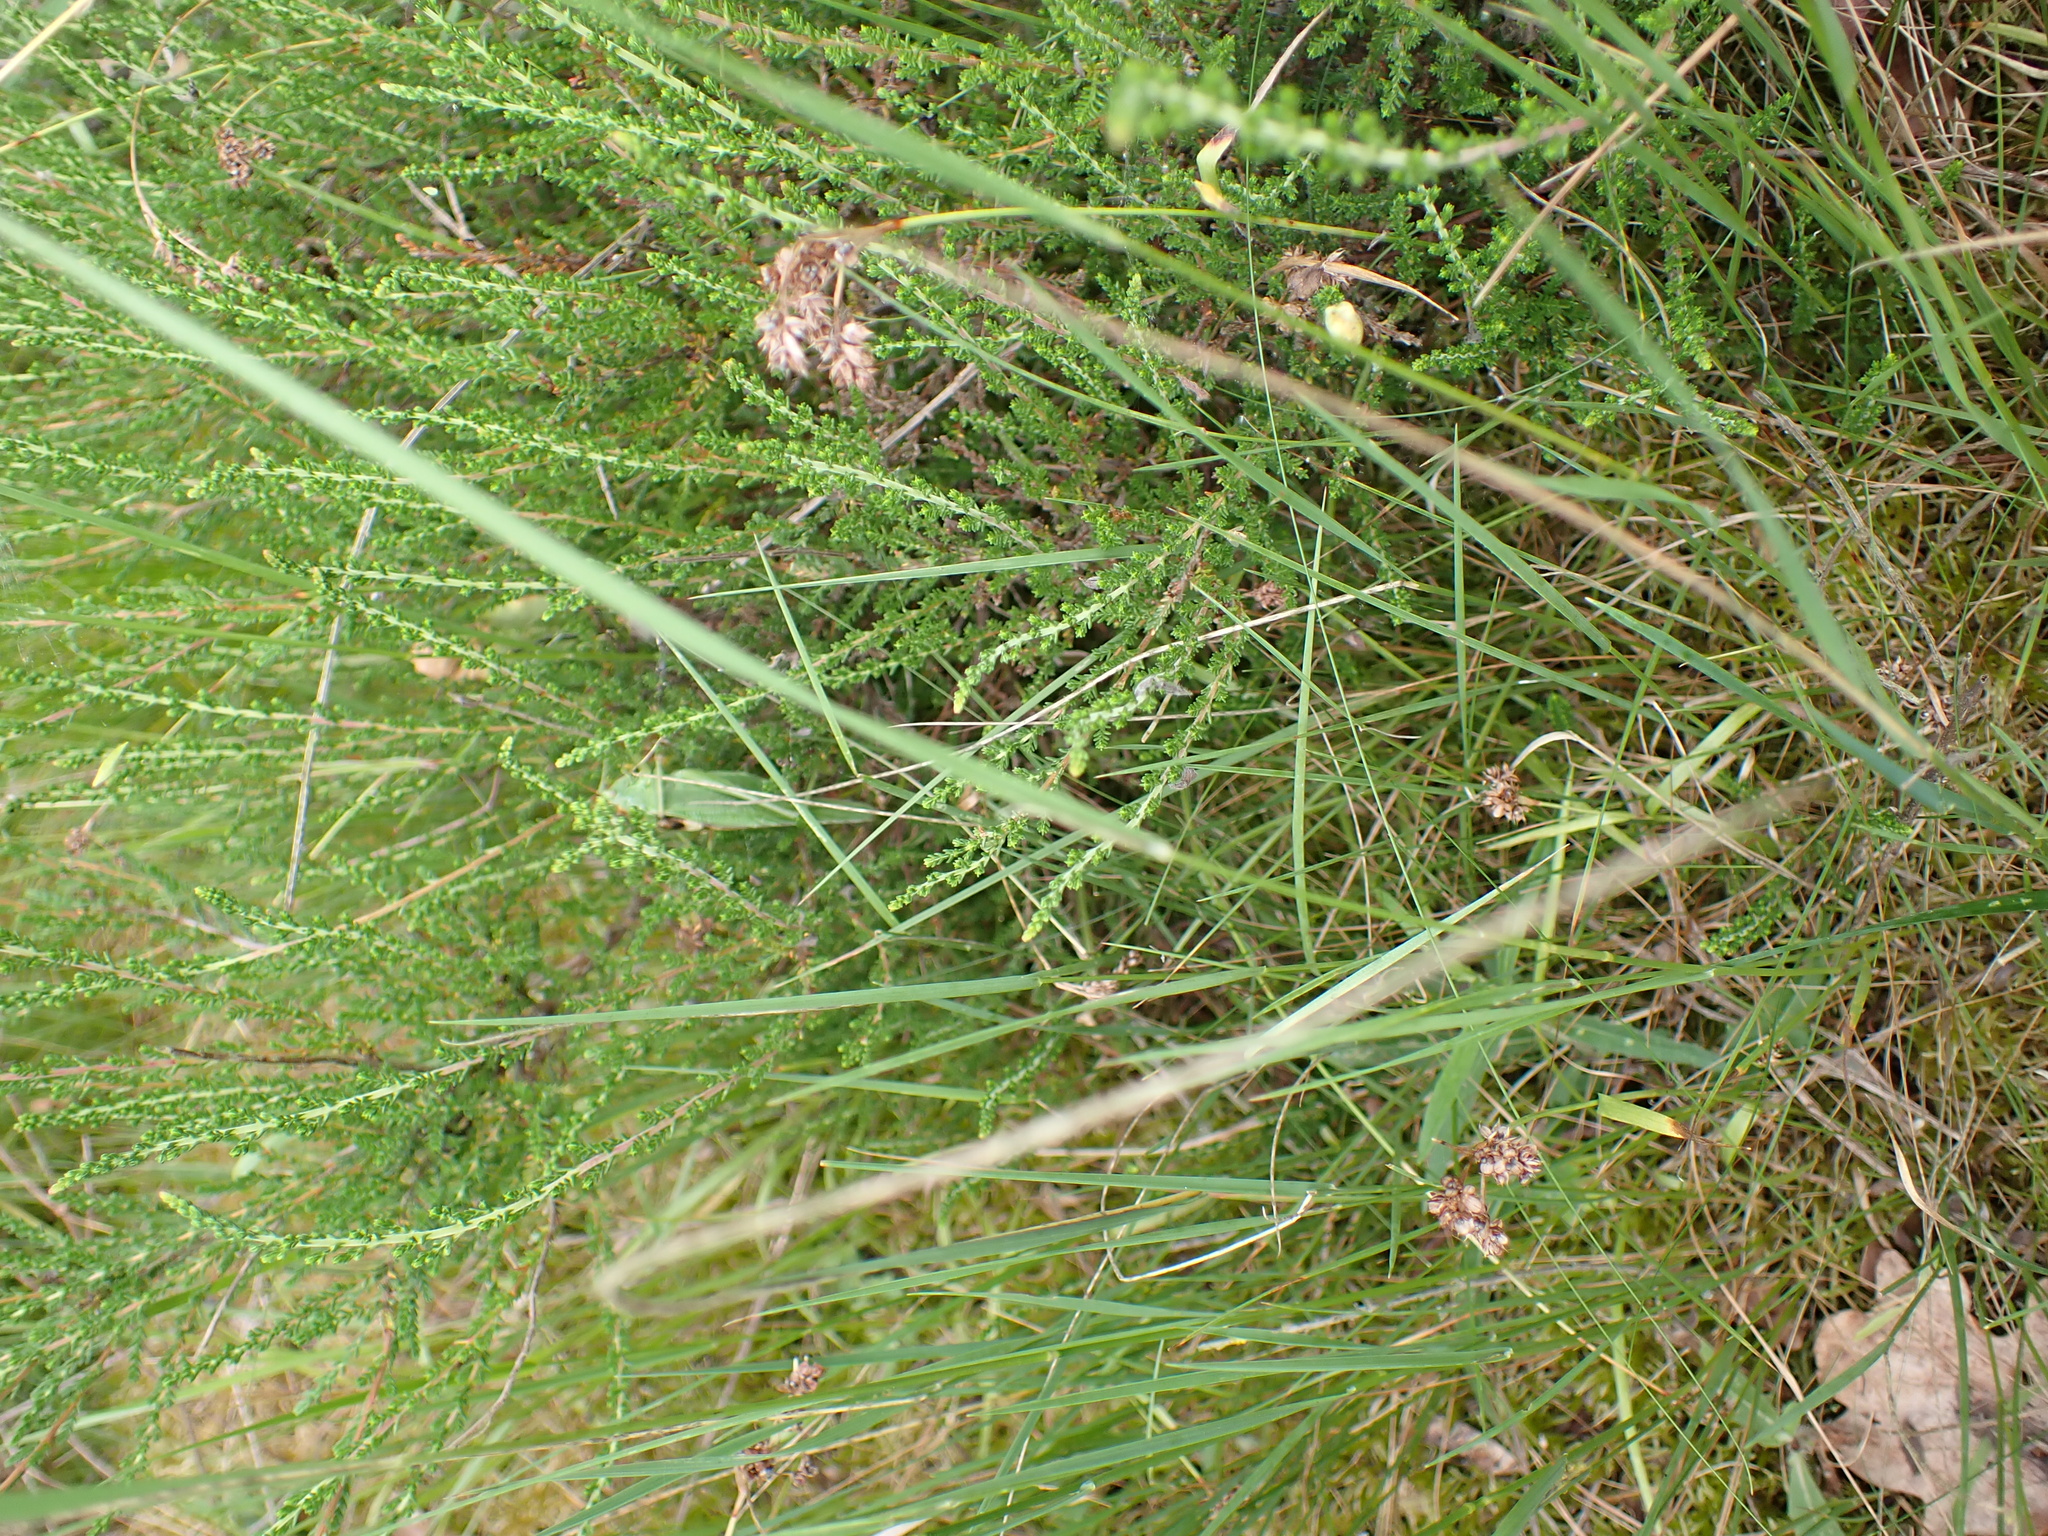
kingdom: Animalia
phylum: Arthropoda
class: Insecta
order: Orthoptera
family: Tettigoniidae
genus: Tettigonia
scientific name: Tettigonia viridissima
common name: Great green bush-cricket
